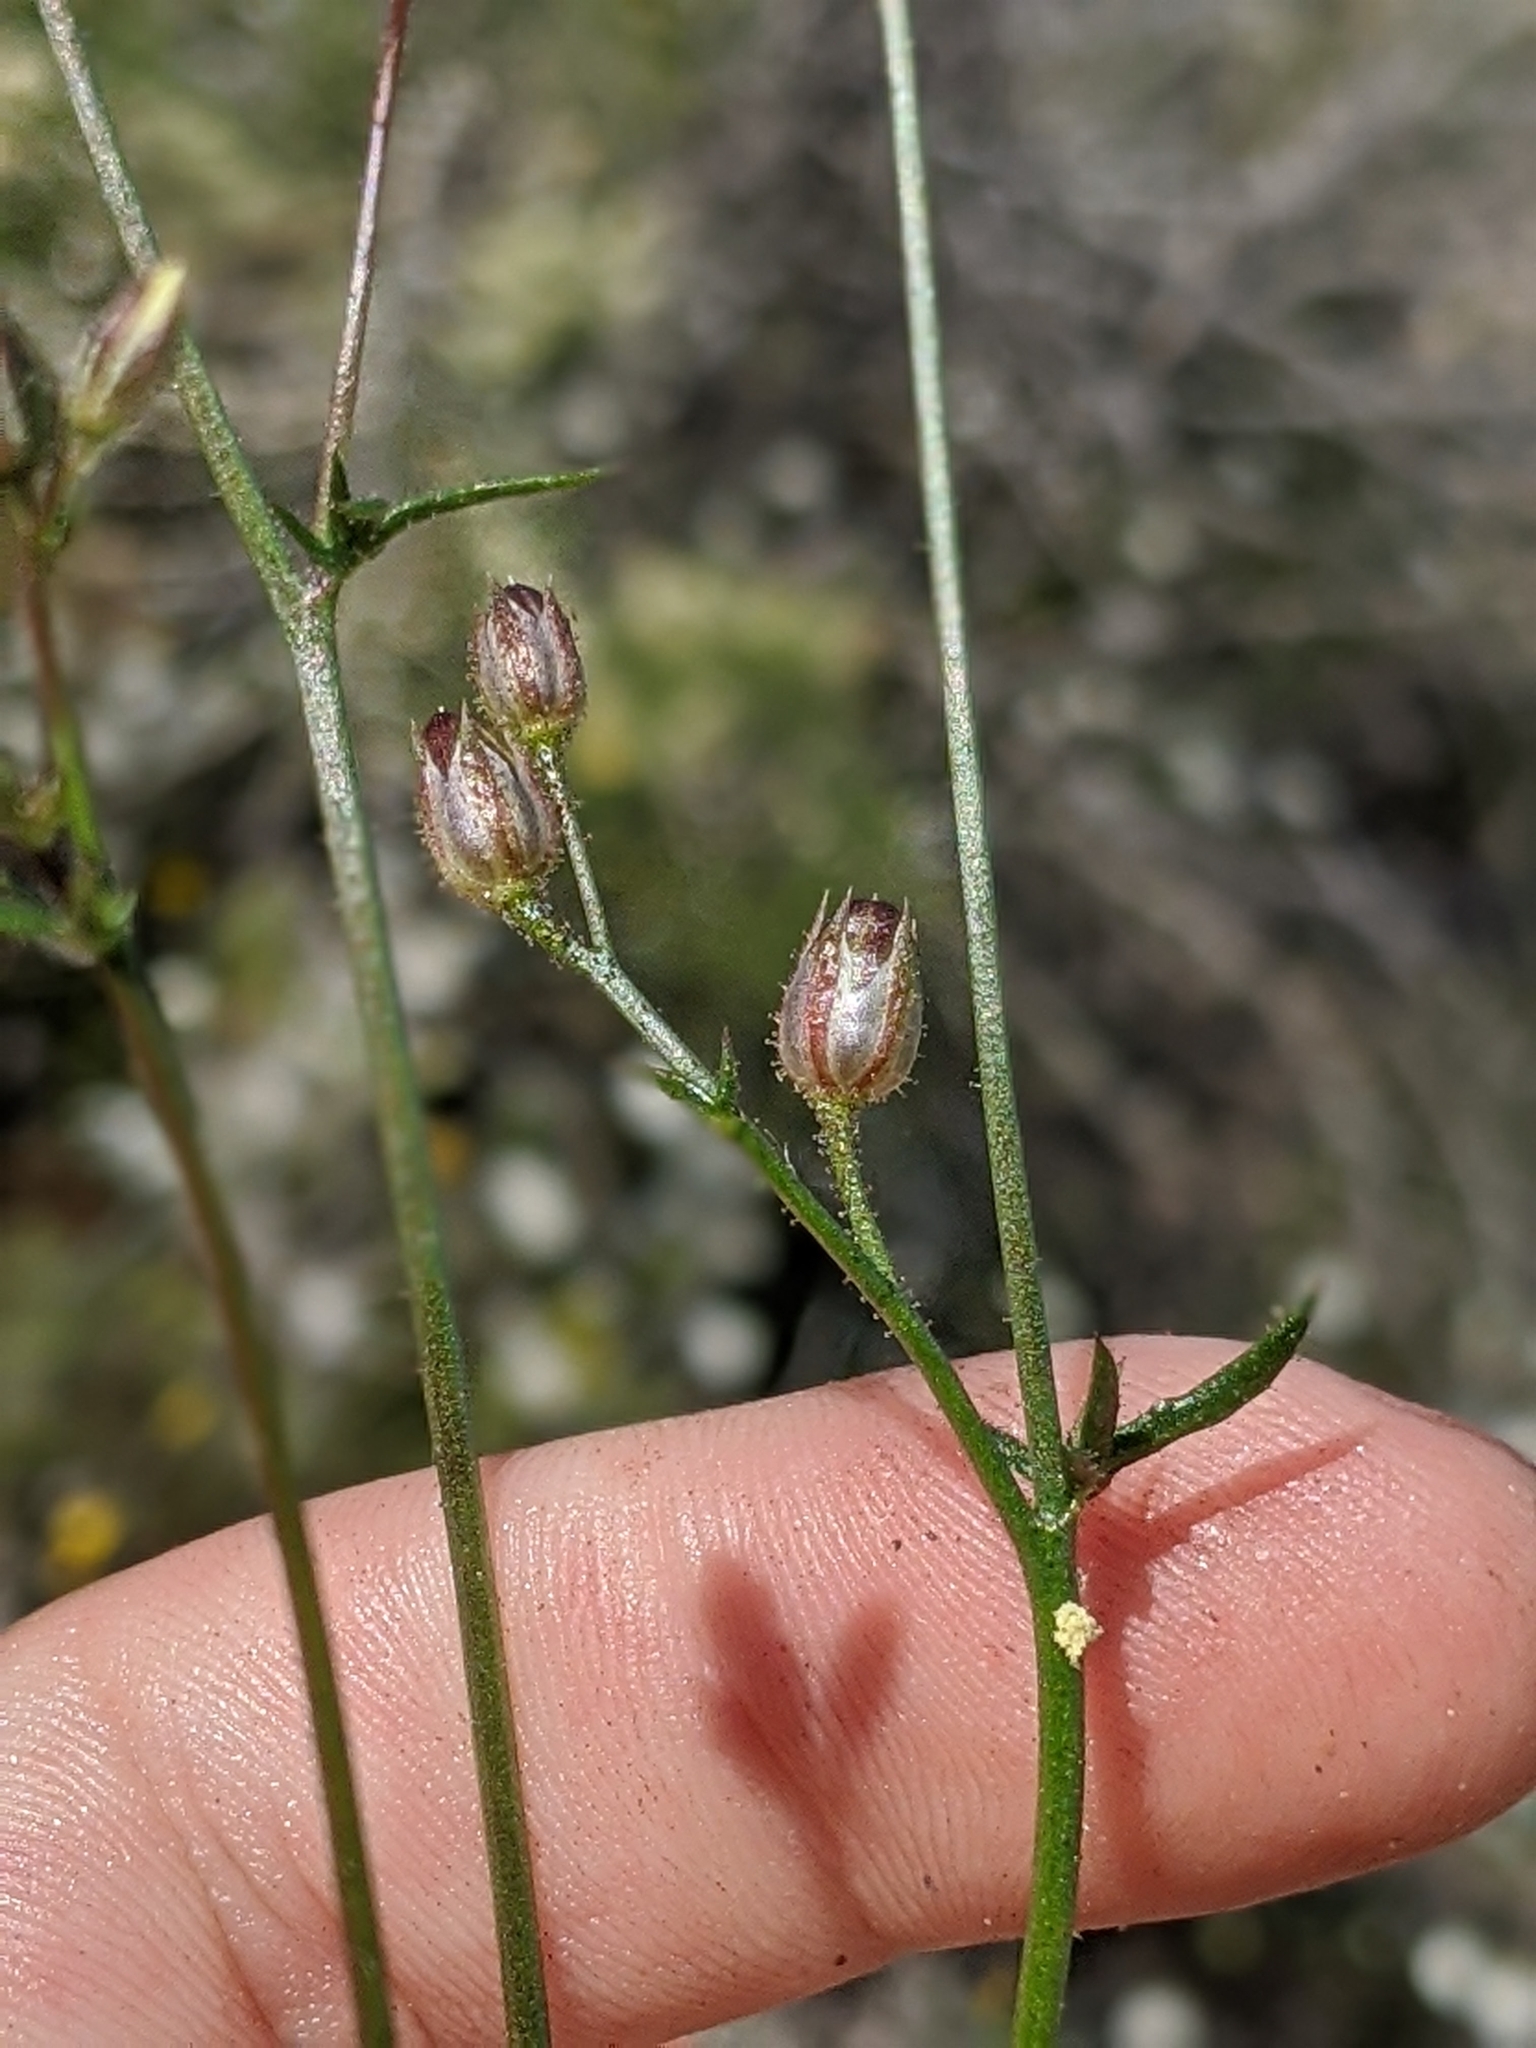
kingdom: Plantae
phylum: Tracheophyta
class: Magnoliopsida
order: Ericales
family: Polemoniaceae
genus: Gilia
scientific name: Gilia stellata
